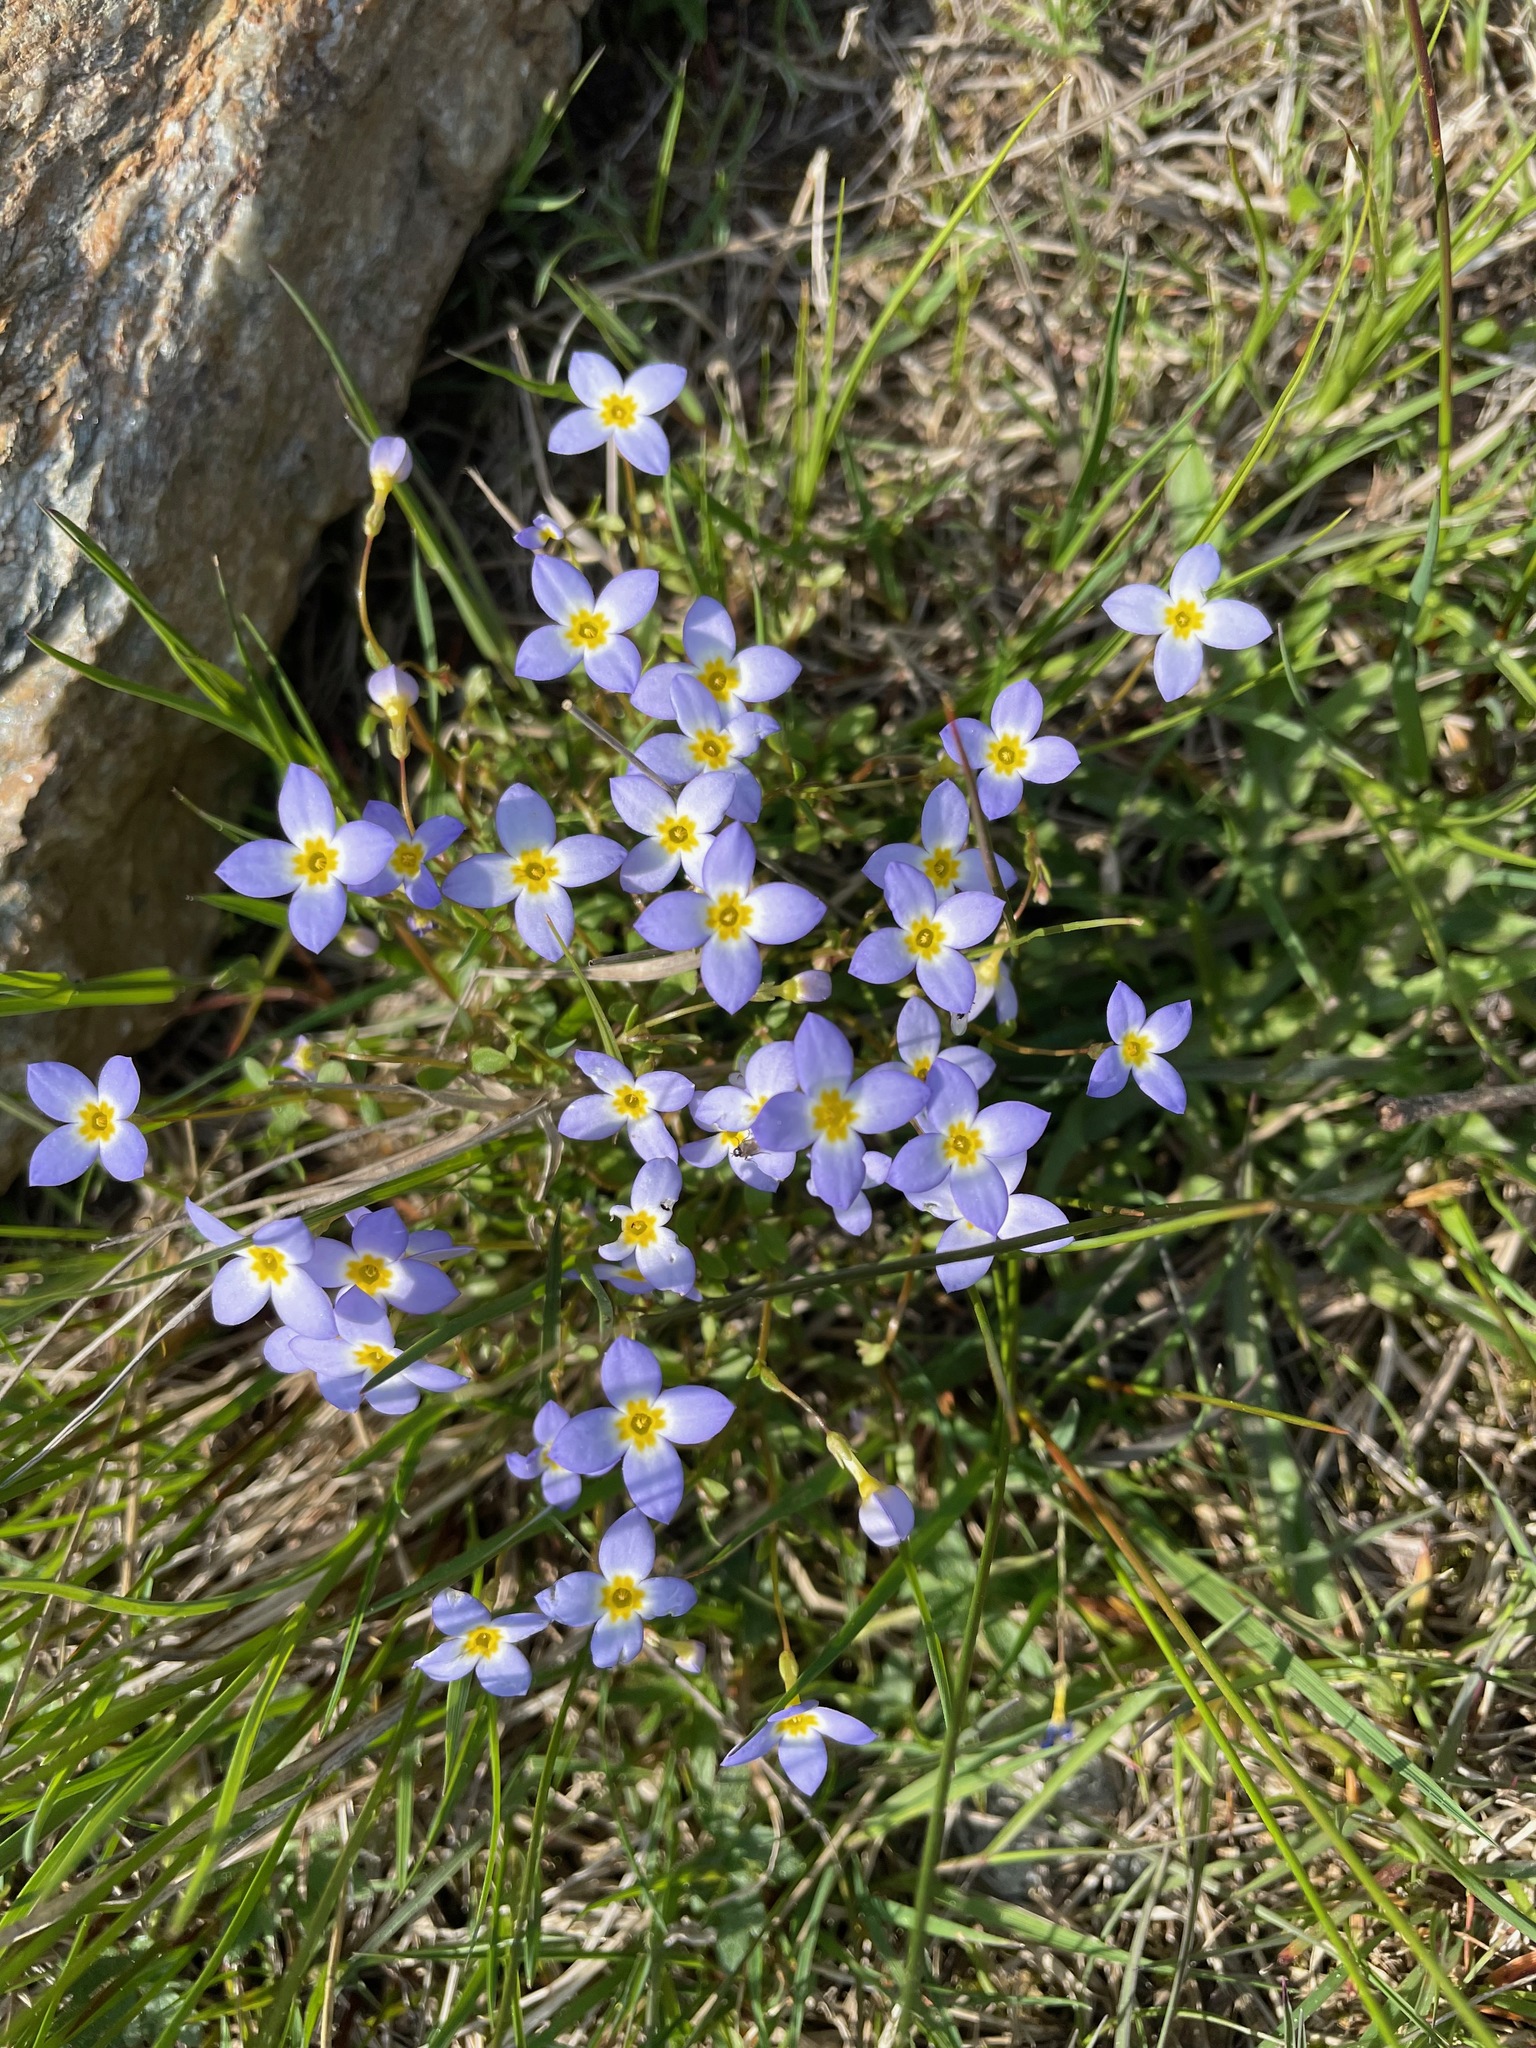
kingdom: Plantae
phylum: Tracheophyta
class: Magnoliopsida
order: Gentianales
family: Rubiaceae
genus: Houstonia
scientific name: Houstonia caerulea
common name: Bluets
